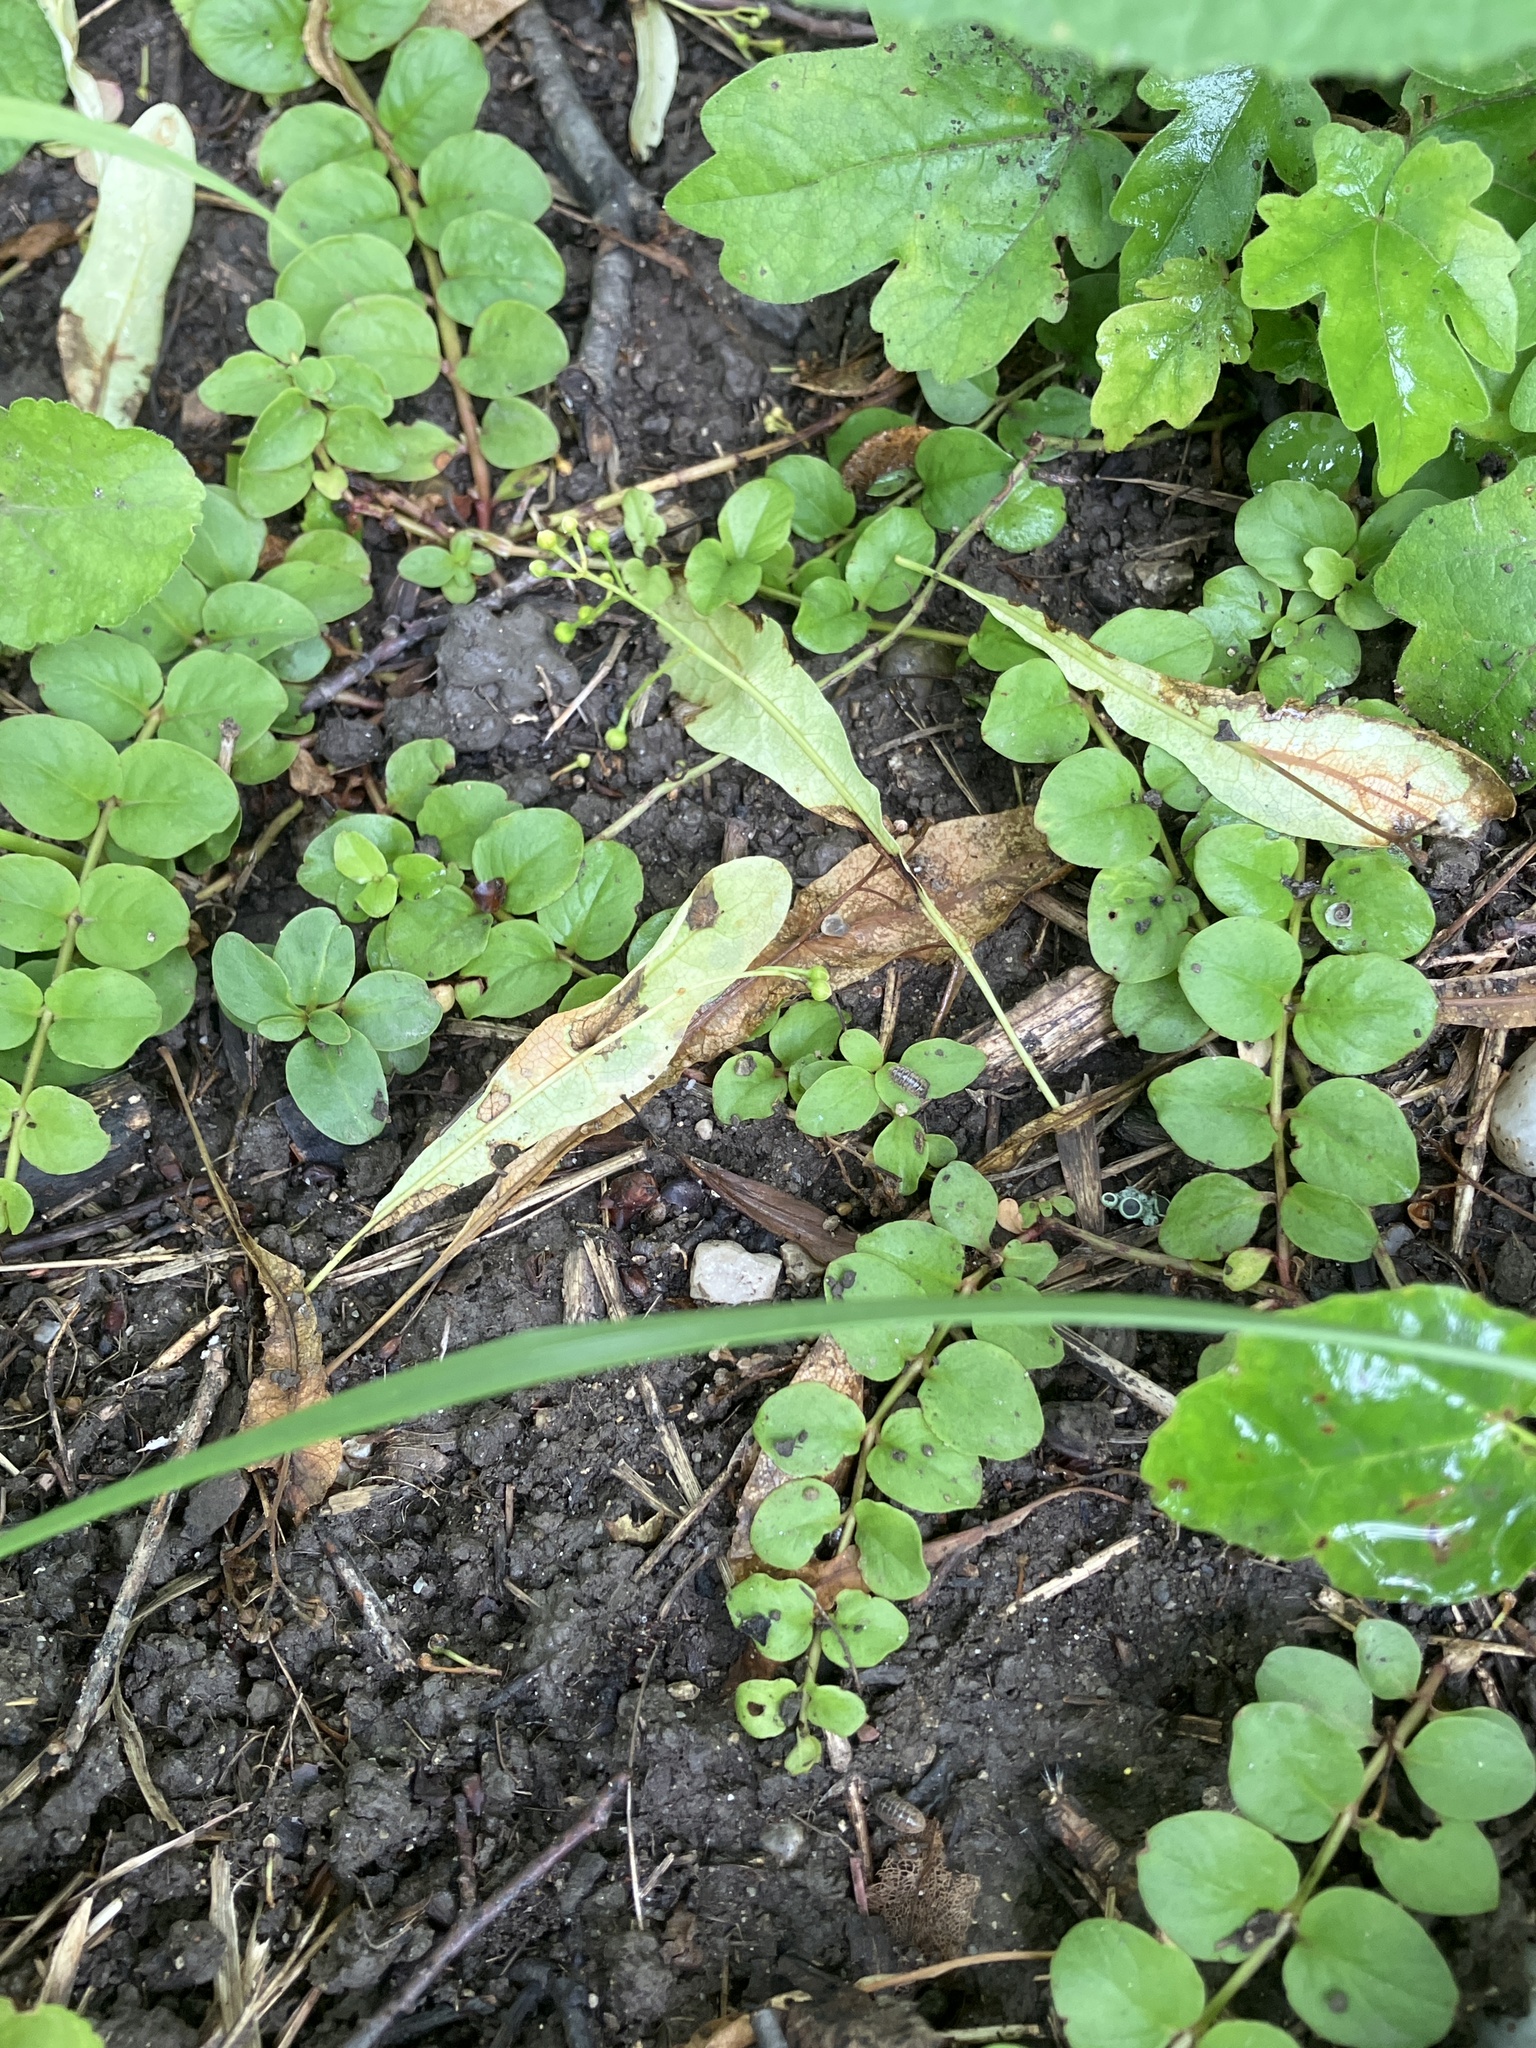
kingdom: Plantae
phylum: Tracheophyta
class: Magnoliopsida
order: Ericales
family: Primulaceae
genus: Lysimachia
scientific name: Lysimachia nummularia
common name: Moneywort
